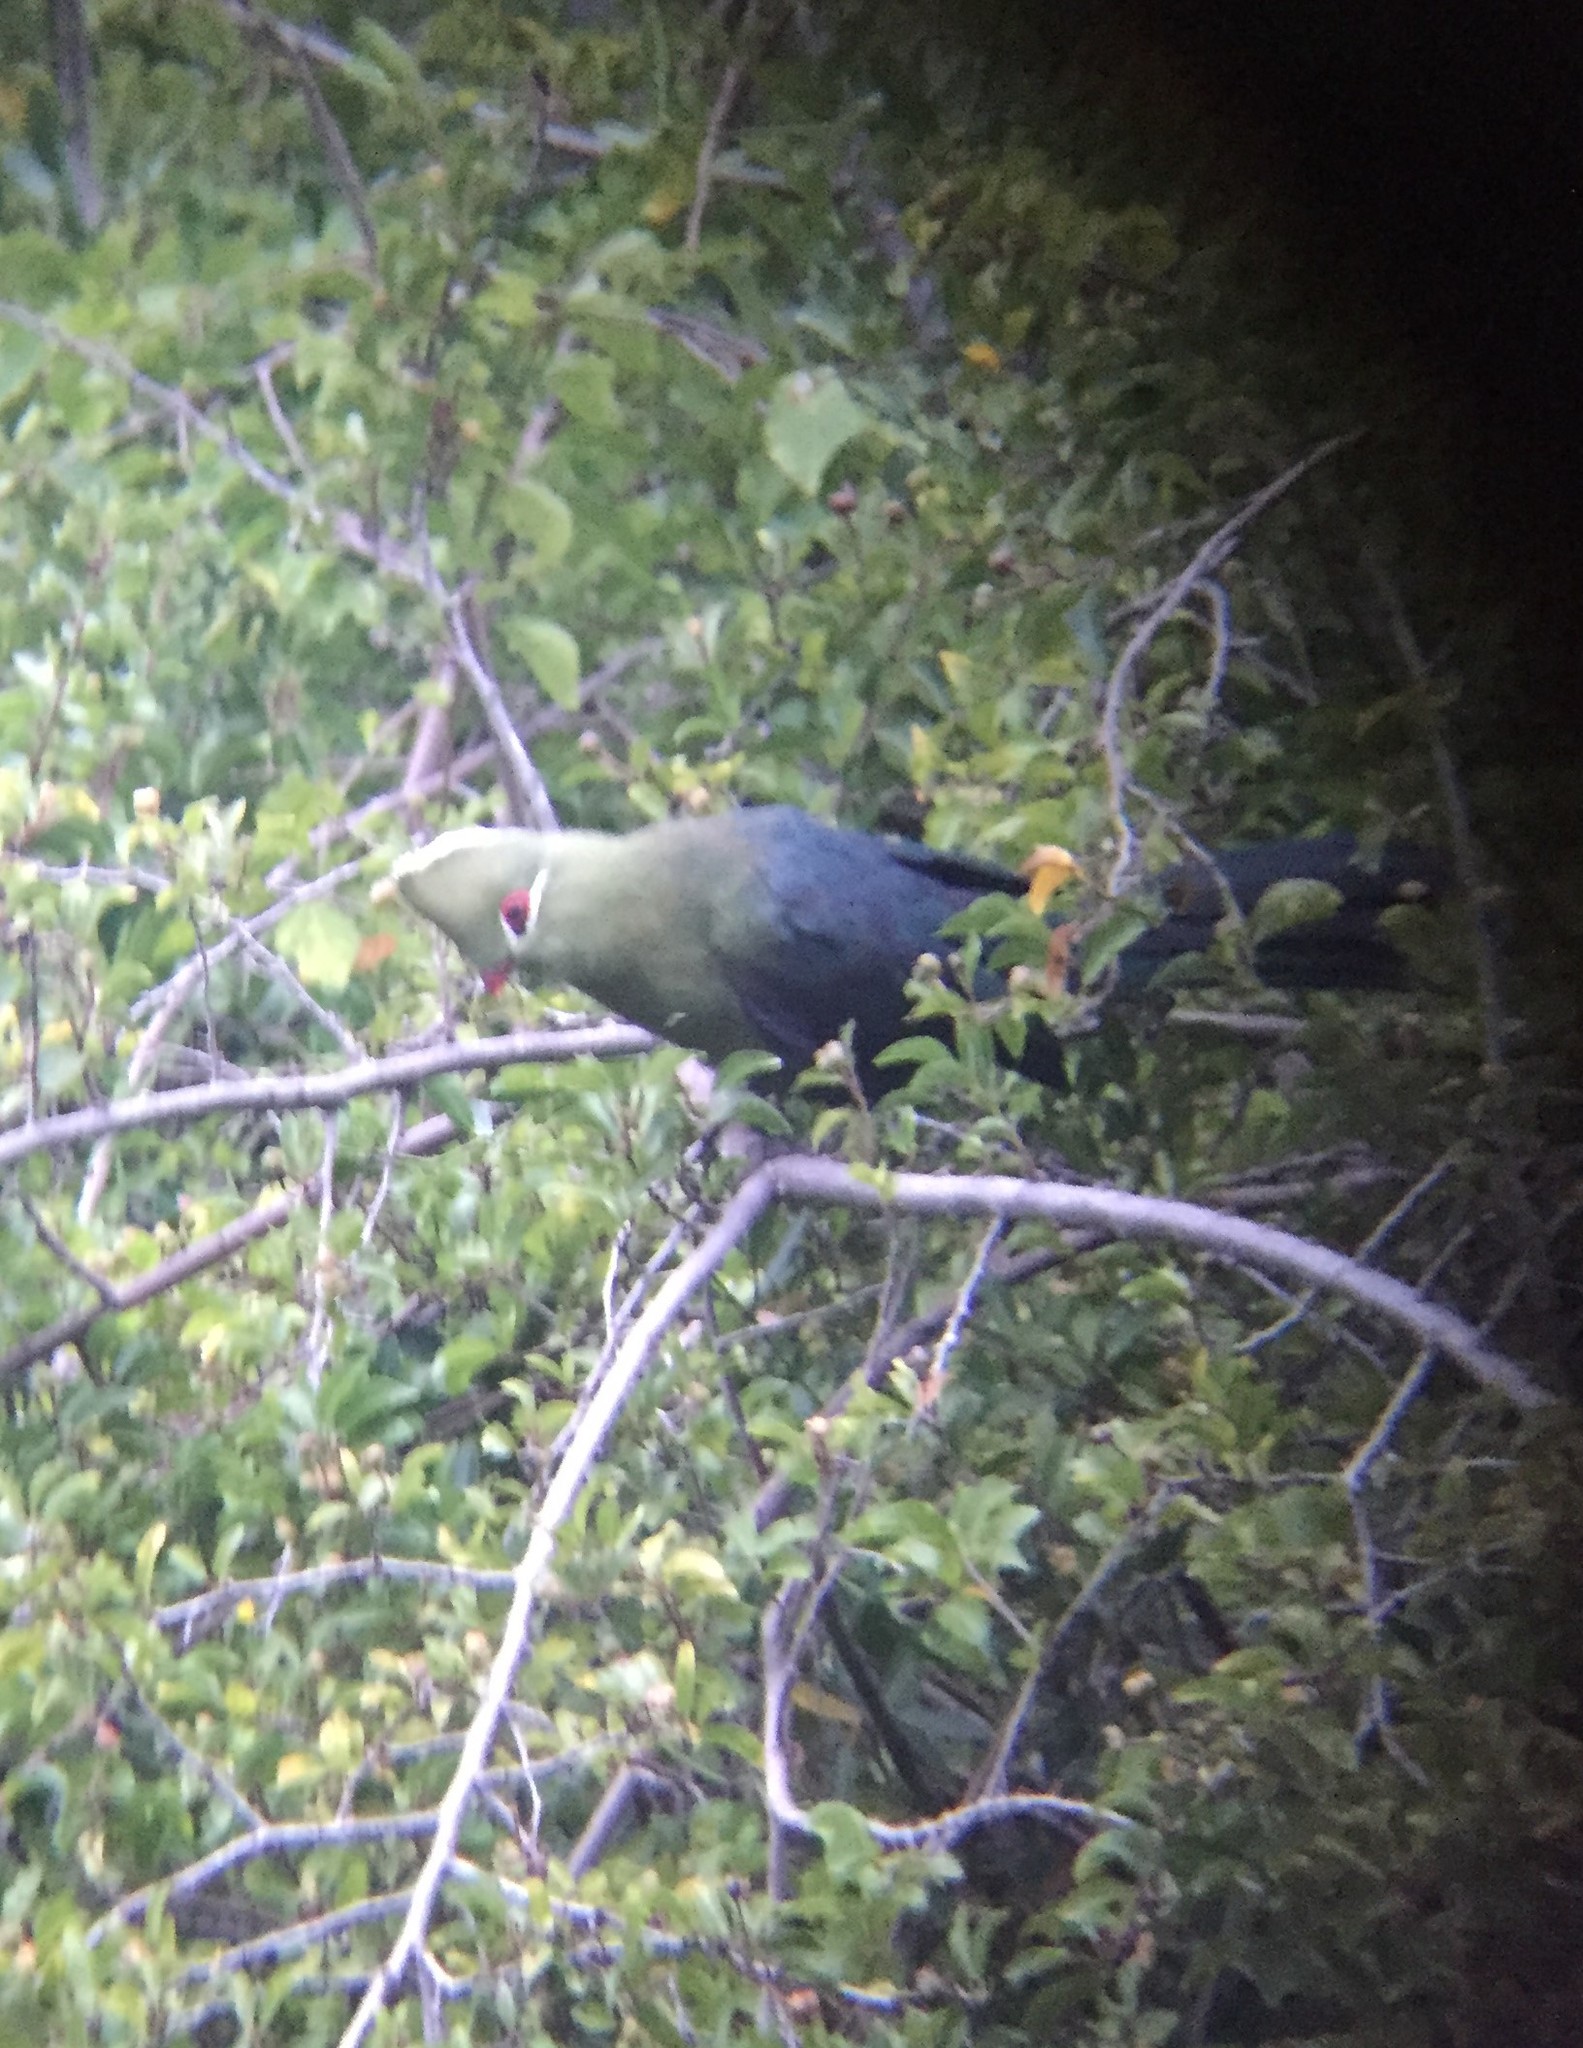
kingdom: Animalia
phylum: Chordata
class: Aves
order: Musophagiformes
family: Musophagidae
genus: Tauraco
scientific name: Tauraco corythaix
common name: Knysna turaco
